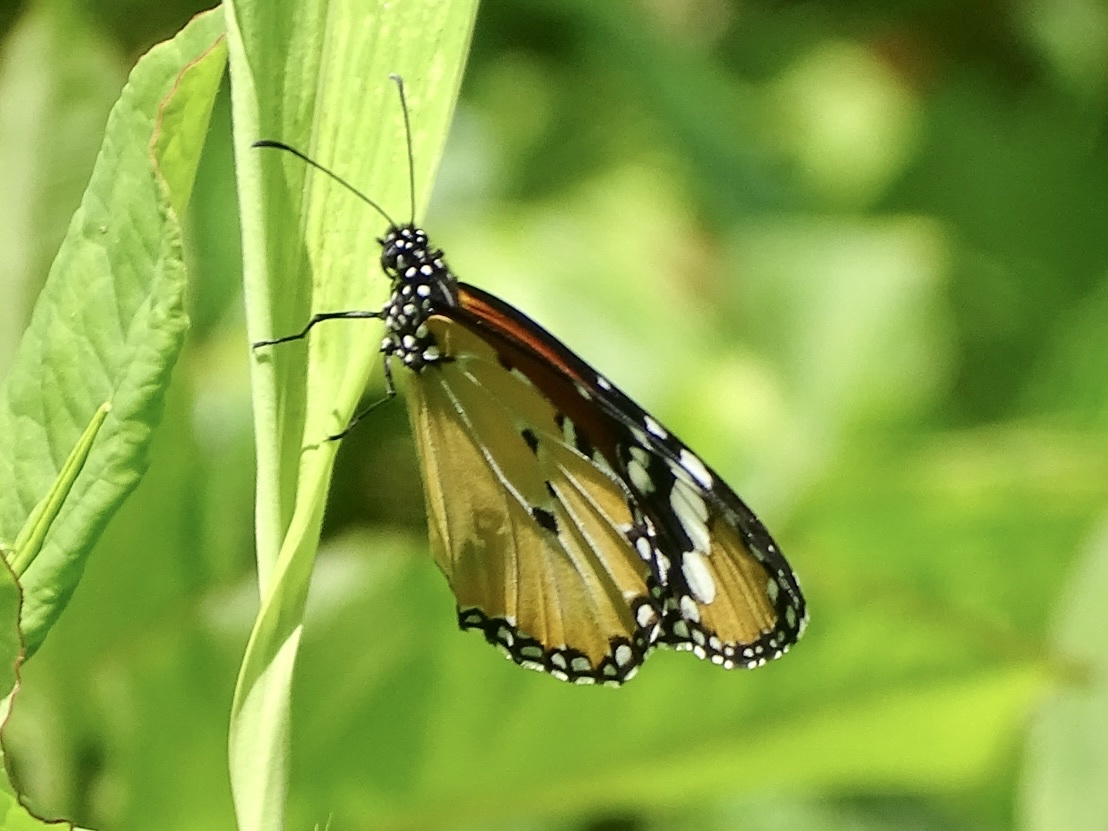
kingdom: Animalia
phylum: Arthropoda
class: Insecta
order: Lepidoptera
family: Nymphalidae
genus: Danaus
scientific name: Danaus chrysippus
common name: Plain tiger
